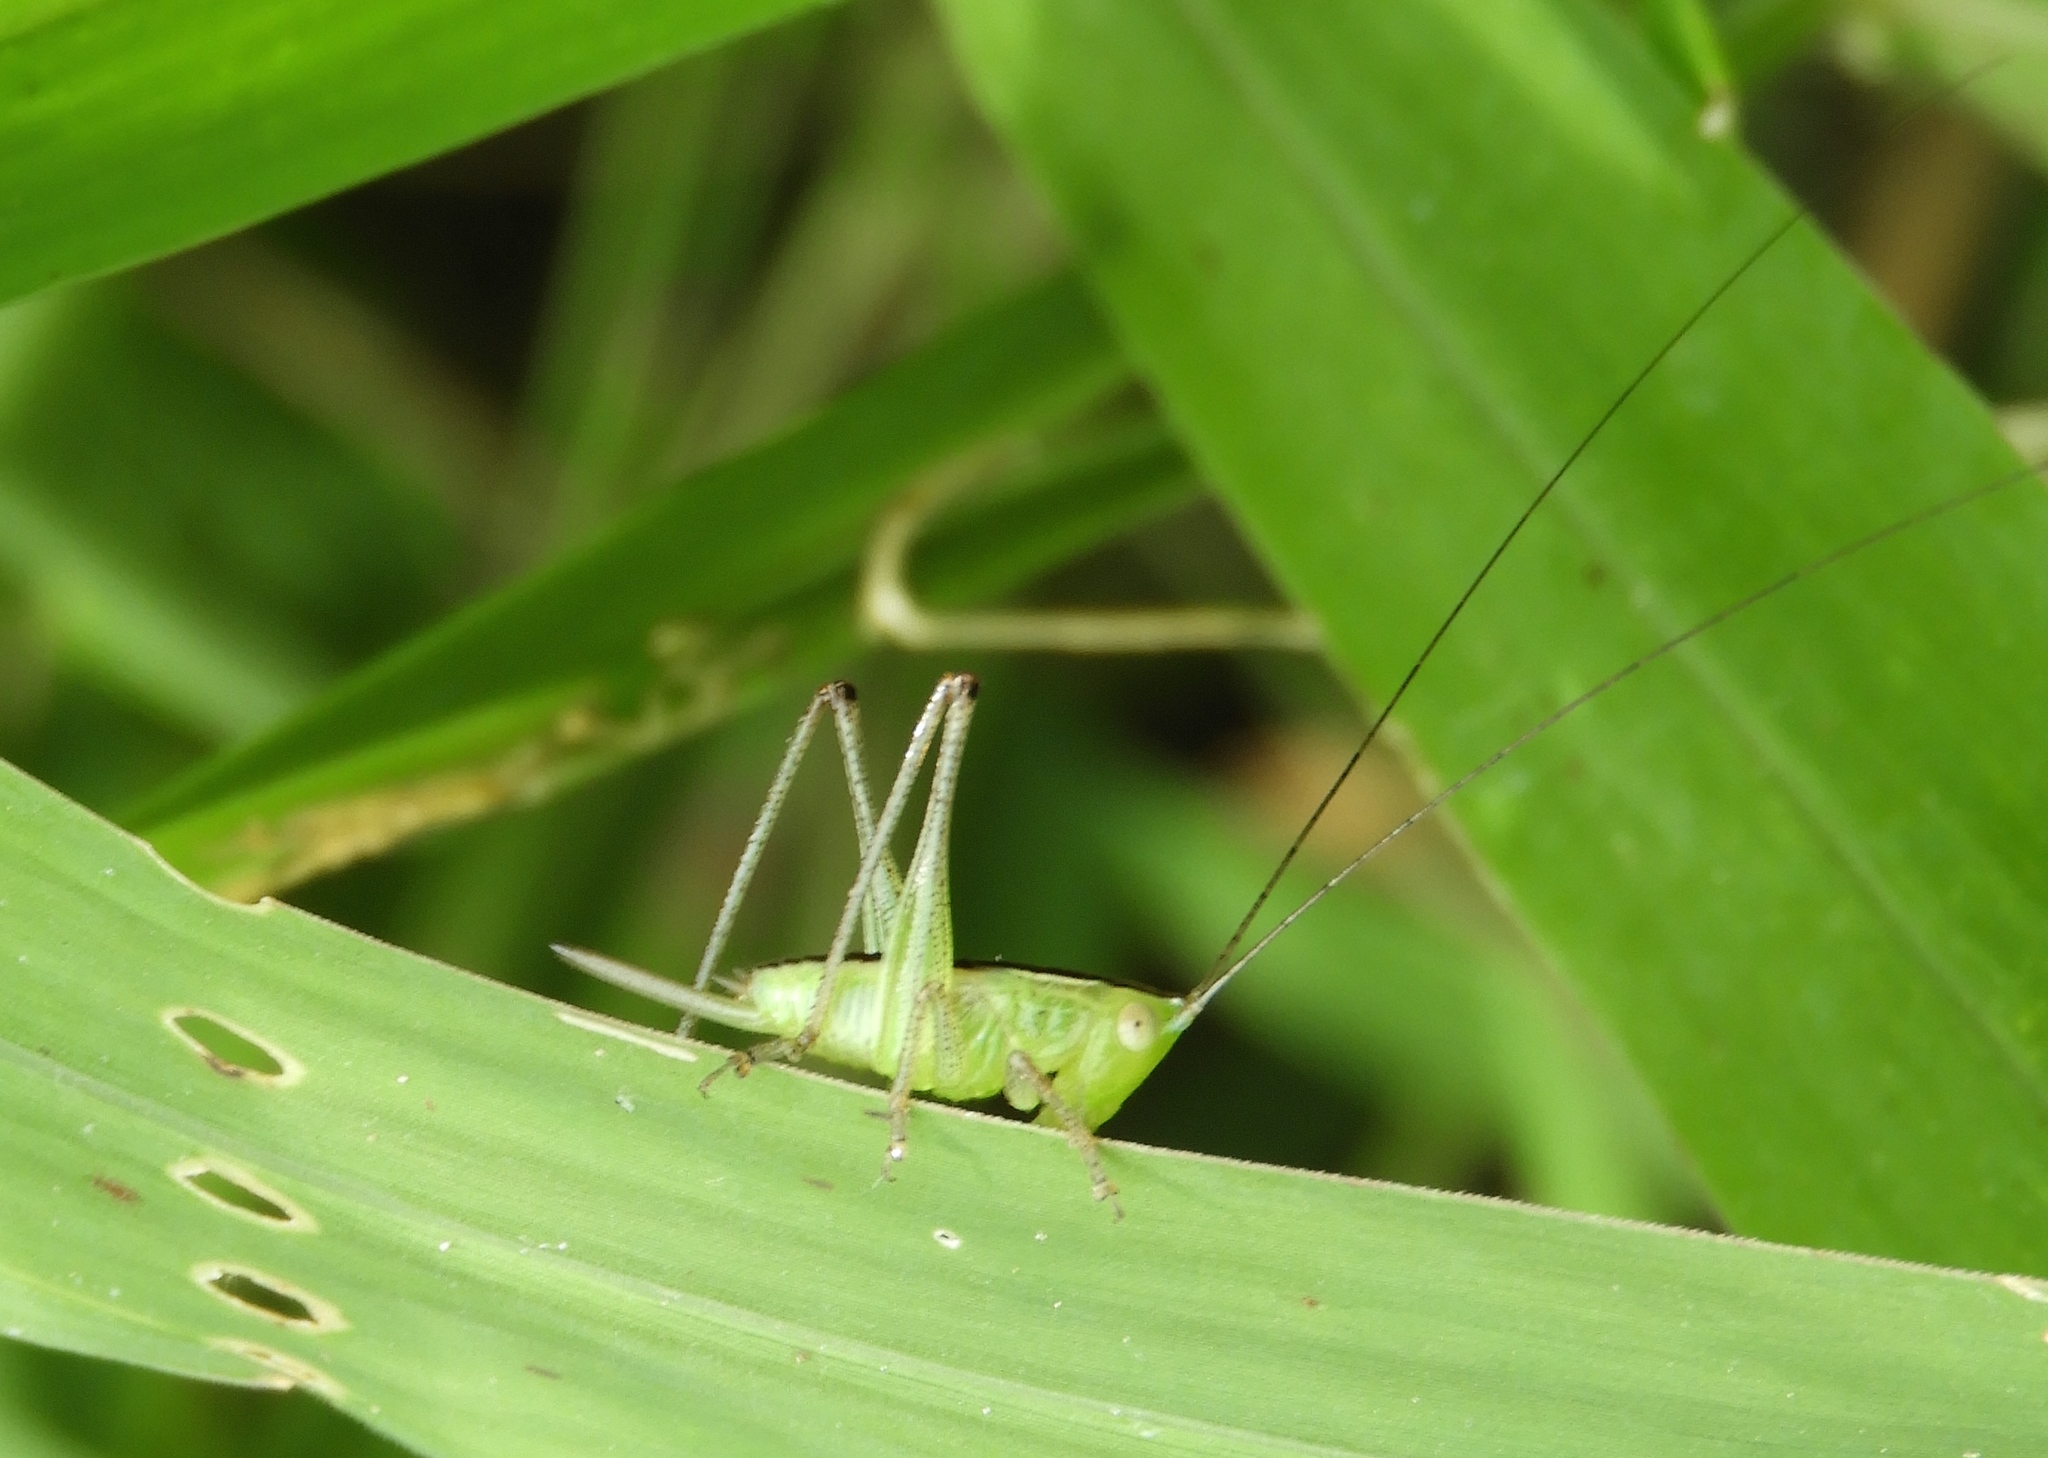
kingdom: Animalia
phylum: Arthropoda
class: Insecta
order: Orthoptera
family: Tettigoniidae
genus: Conocephalus
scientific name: Conocephalus
